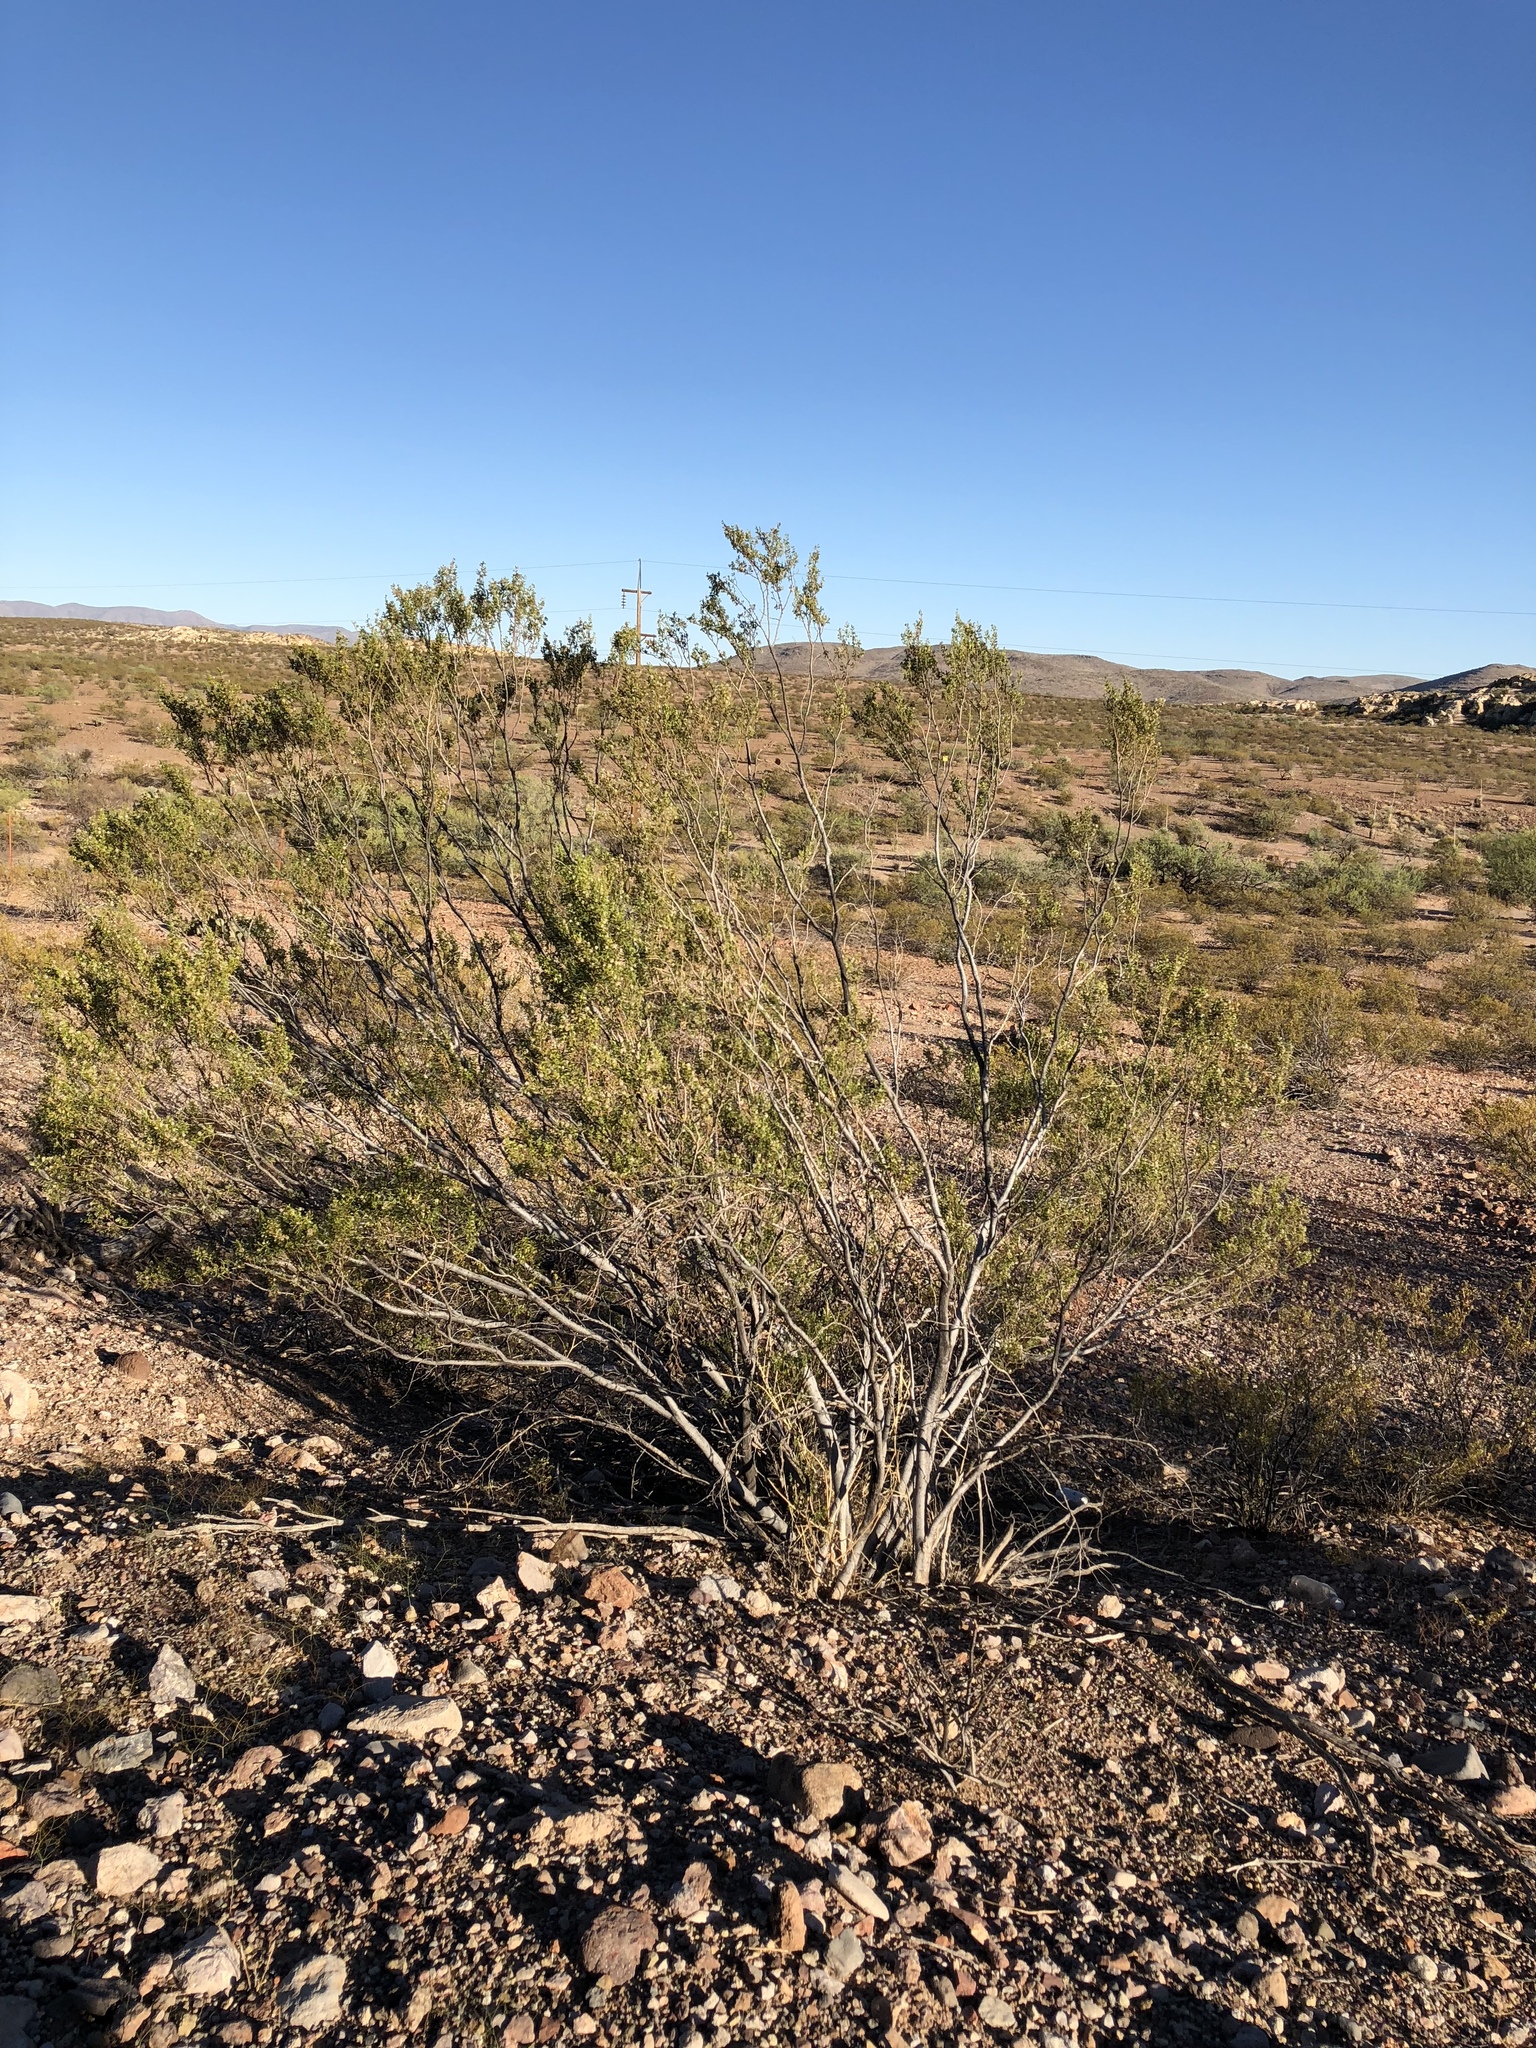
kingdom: Plantae
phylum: Tracheophyta
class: Magnoliopsida
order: Zygophyllales
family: Zygophyllaceae
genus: Larrea
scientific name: Larrea tridentata
